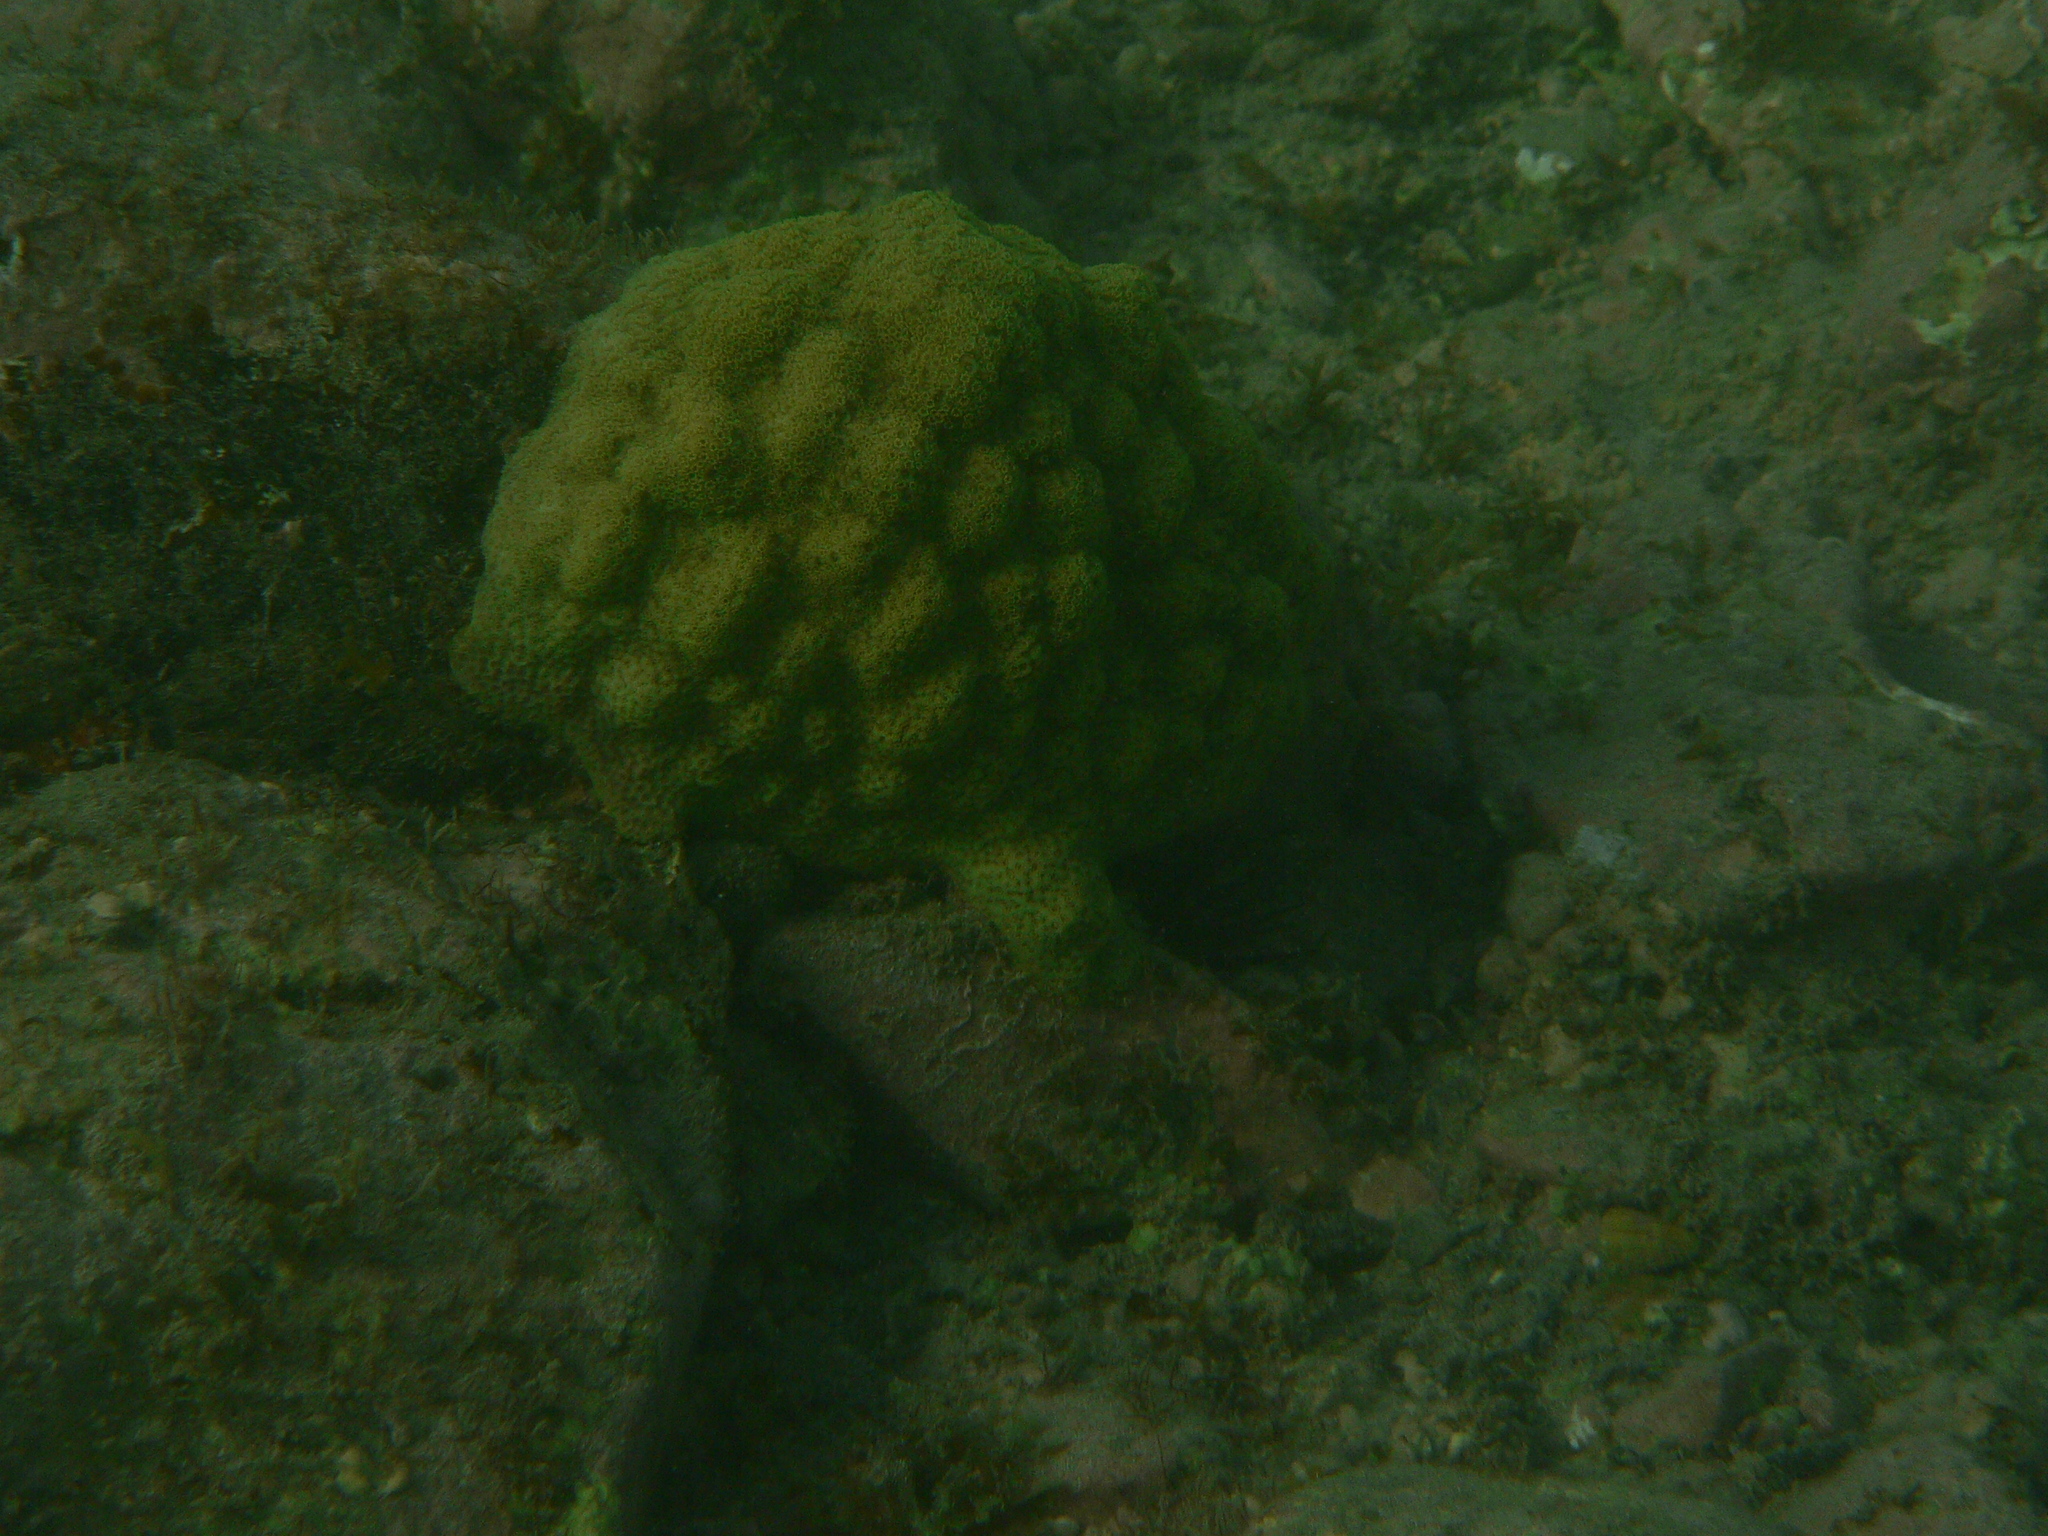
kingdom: Animalia
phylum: Cnidaria
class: Anthozoa
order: Scleractinia
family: Poritidae
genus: Porites
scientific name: Porites astreoides
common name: Mustard hill coral
